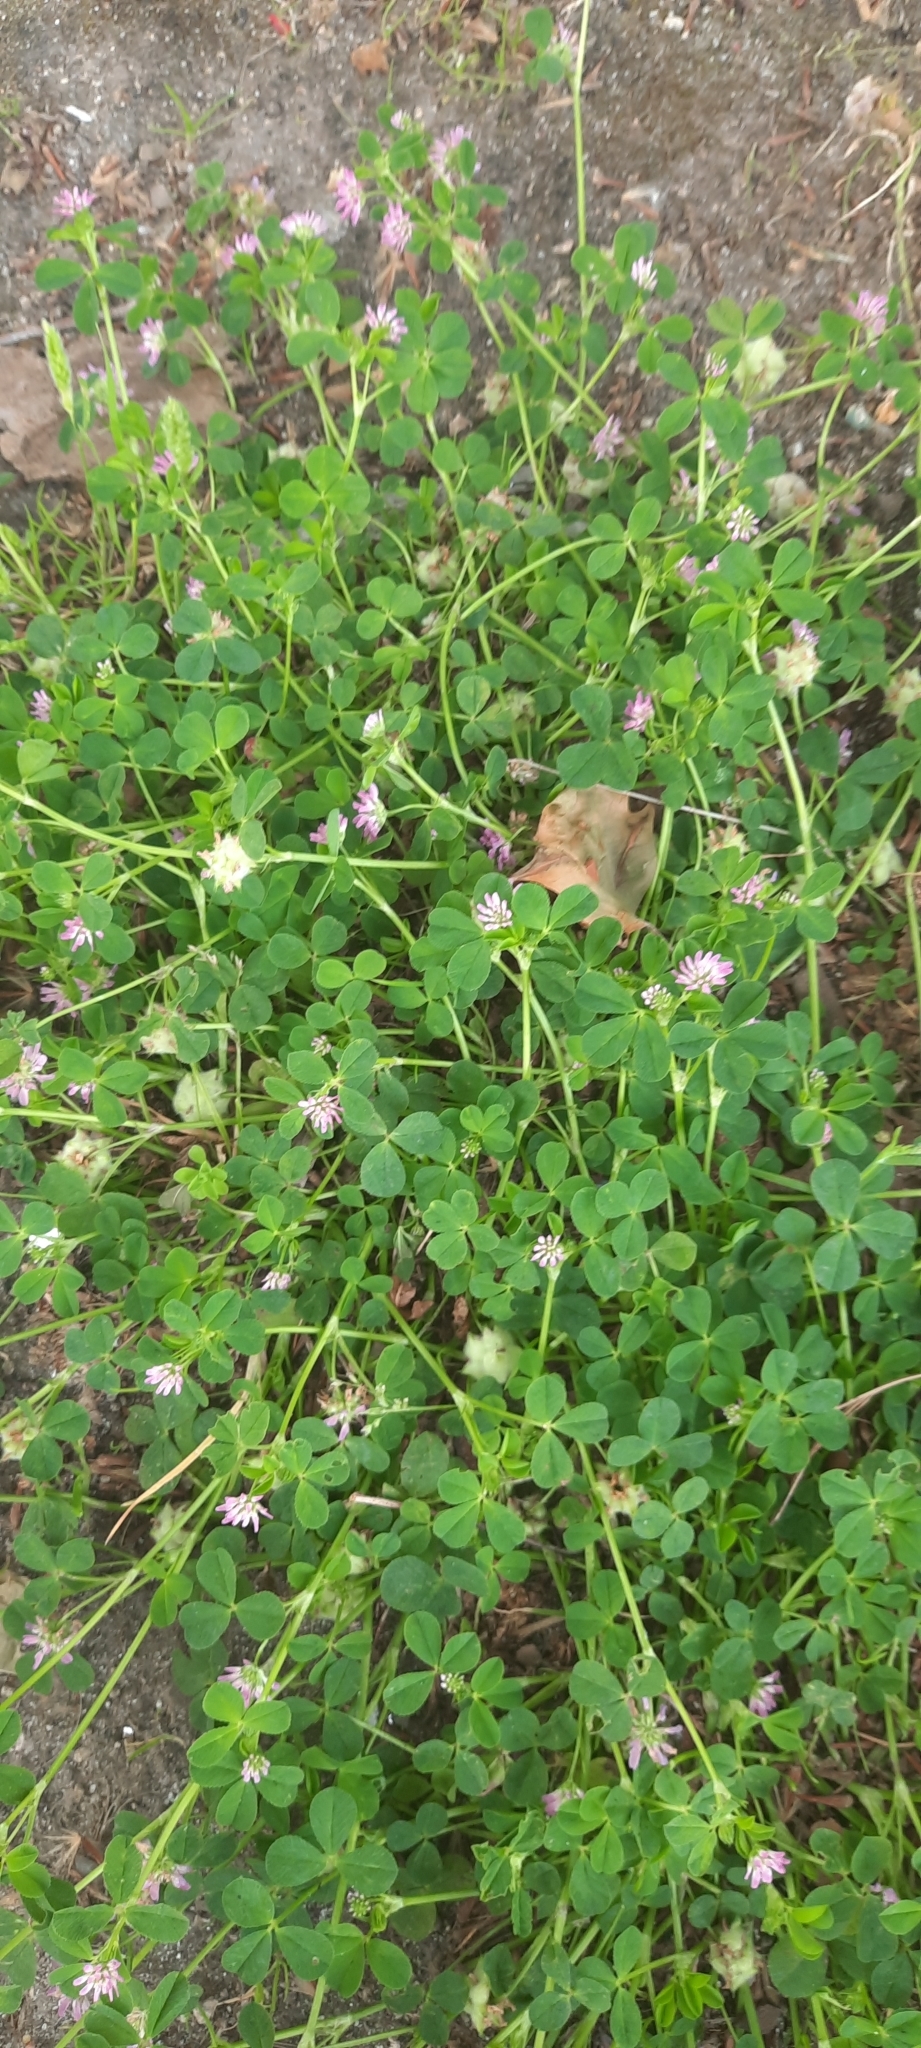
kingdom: Plantae
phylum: Tracheophyta
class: Magnoliopsida
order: Fabales
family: Fabaceae
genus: Trifolium
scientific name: Trifolium resupinatum
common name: Reversed clover
